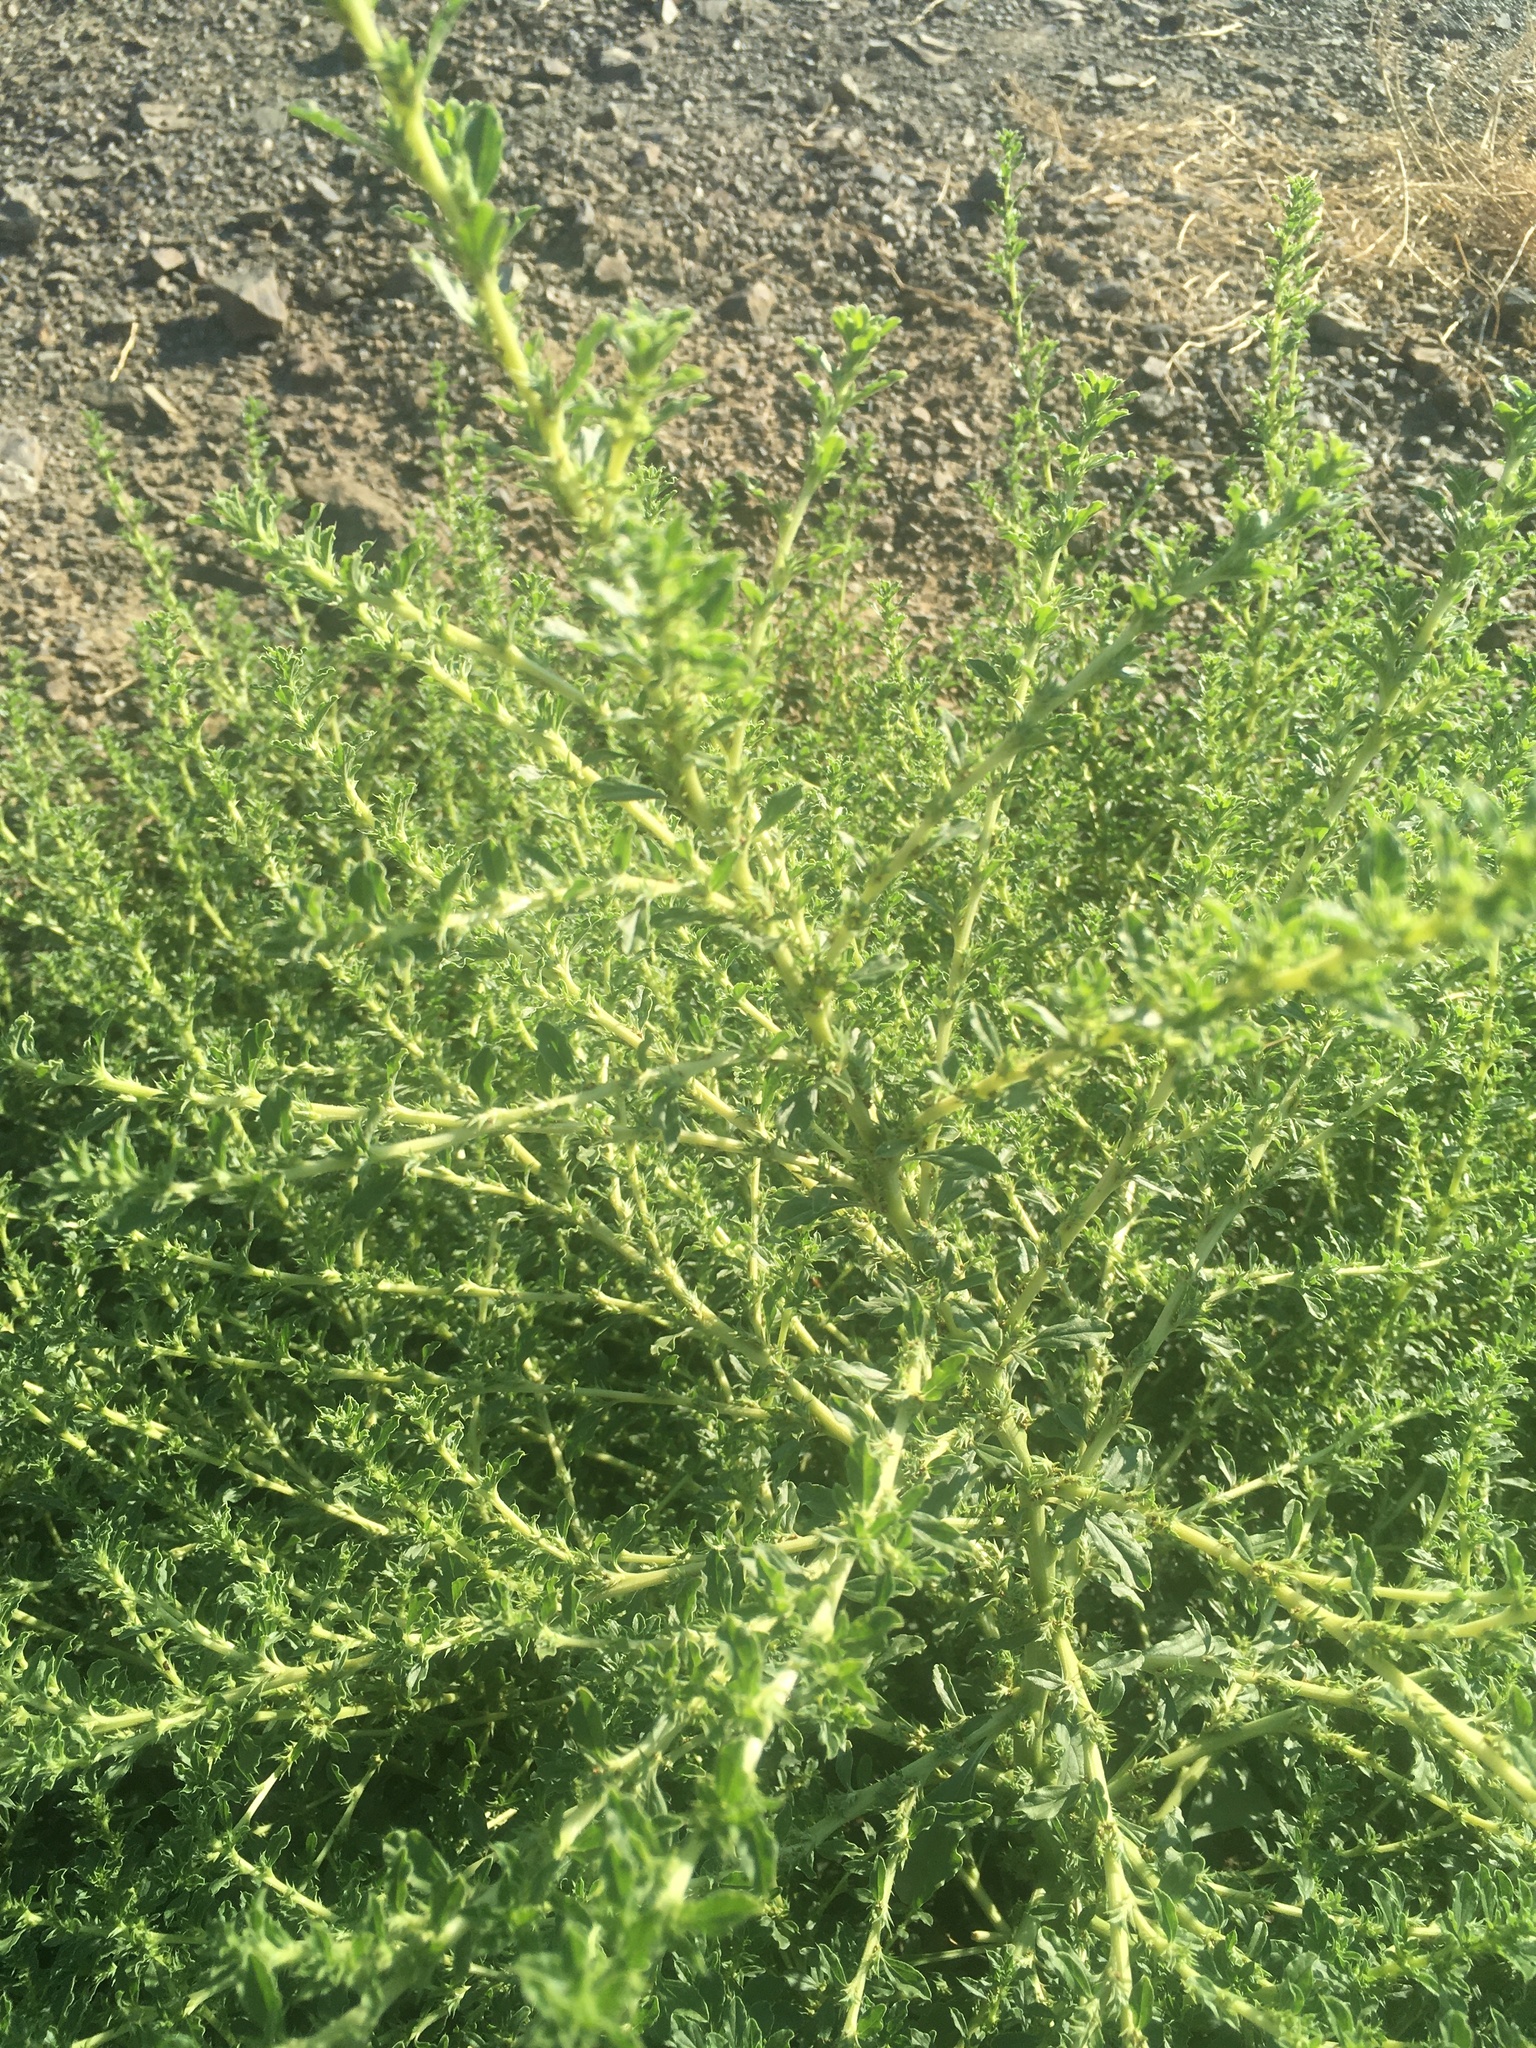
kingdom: Plantae
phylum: Tracheophyta
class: Magnoliopsida
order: Caryophyllales
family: Amaranthaceae
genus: Amaranthus
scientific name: Amaranthus albus
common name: White pigweed
